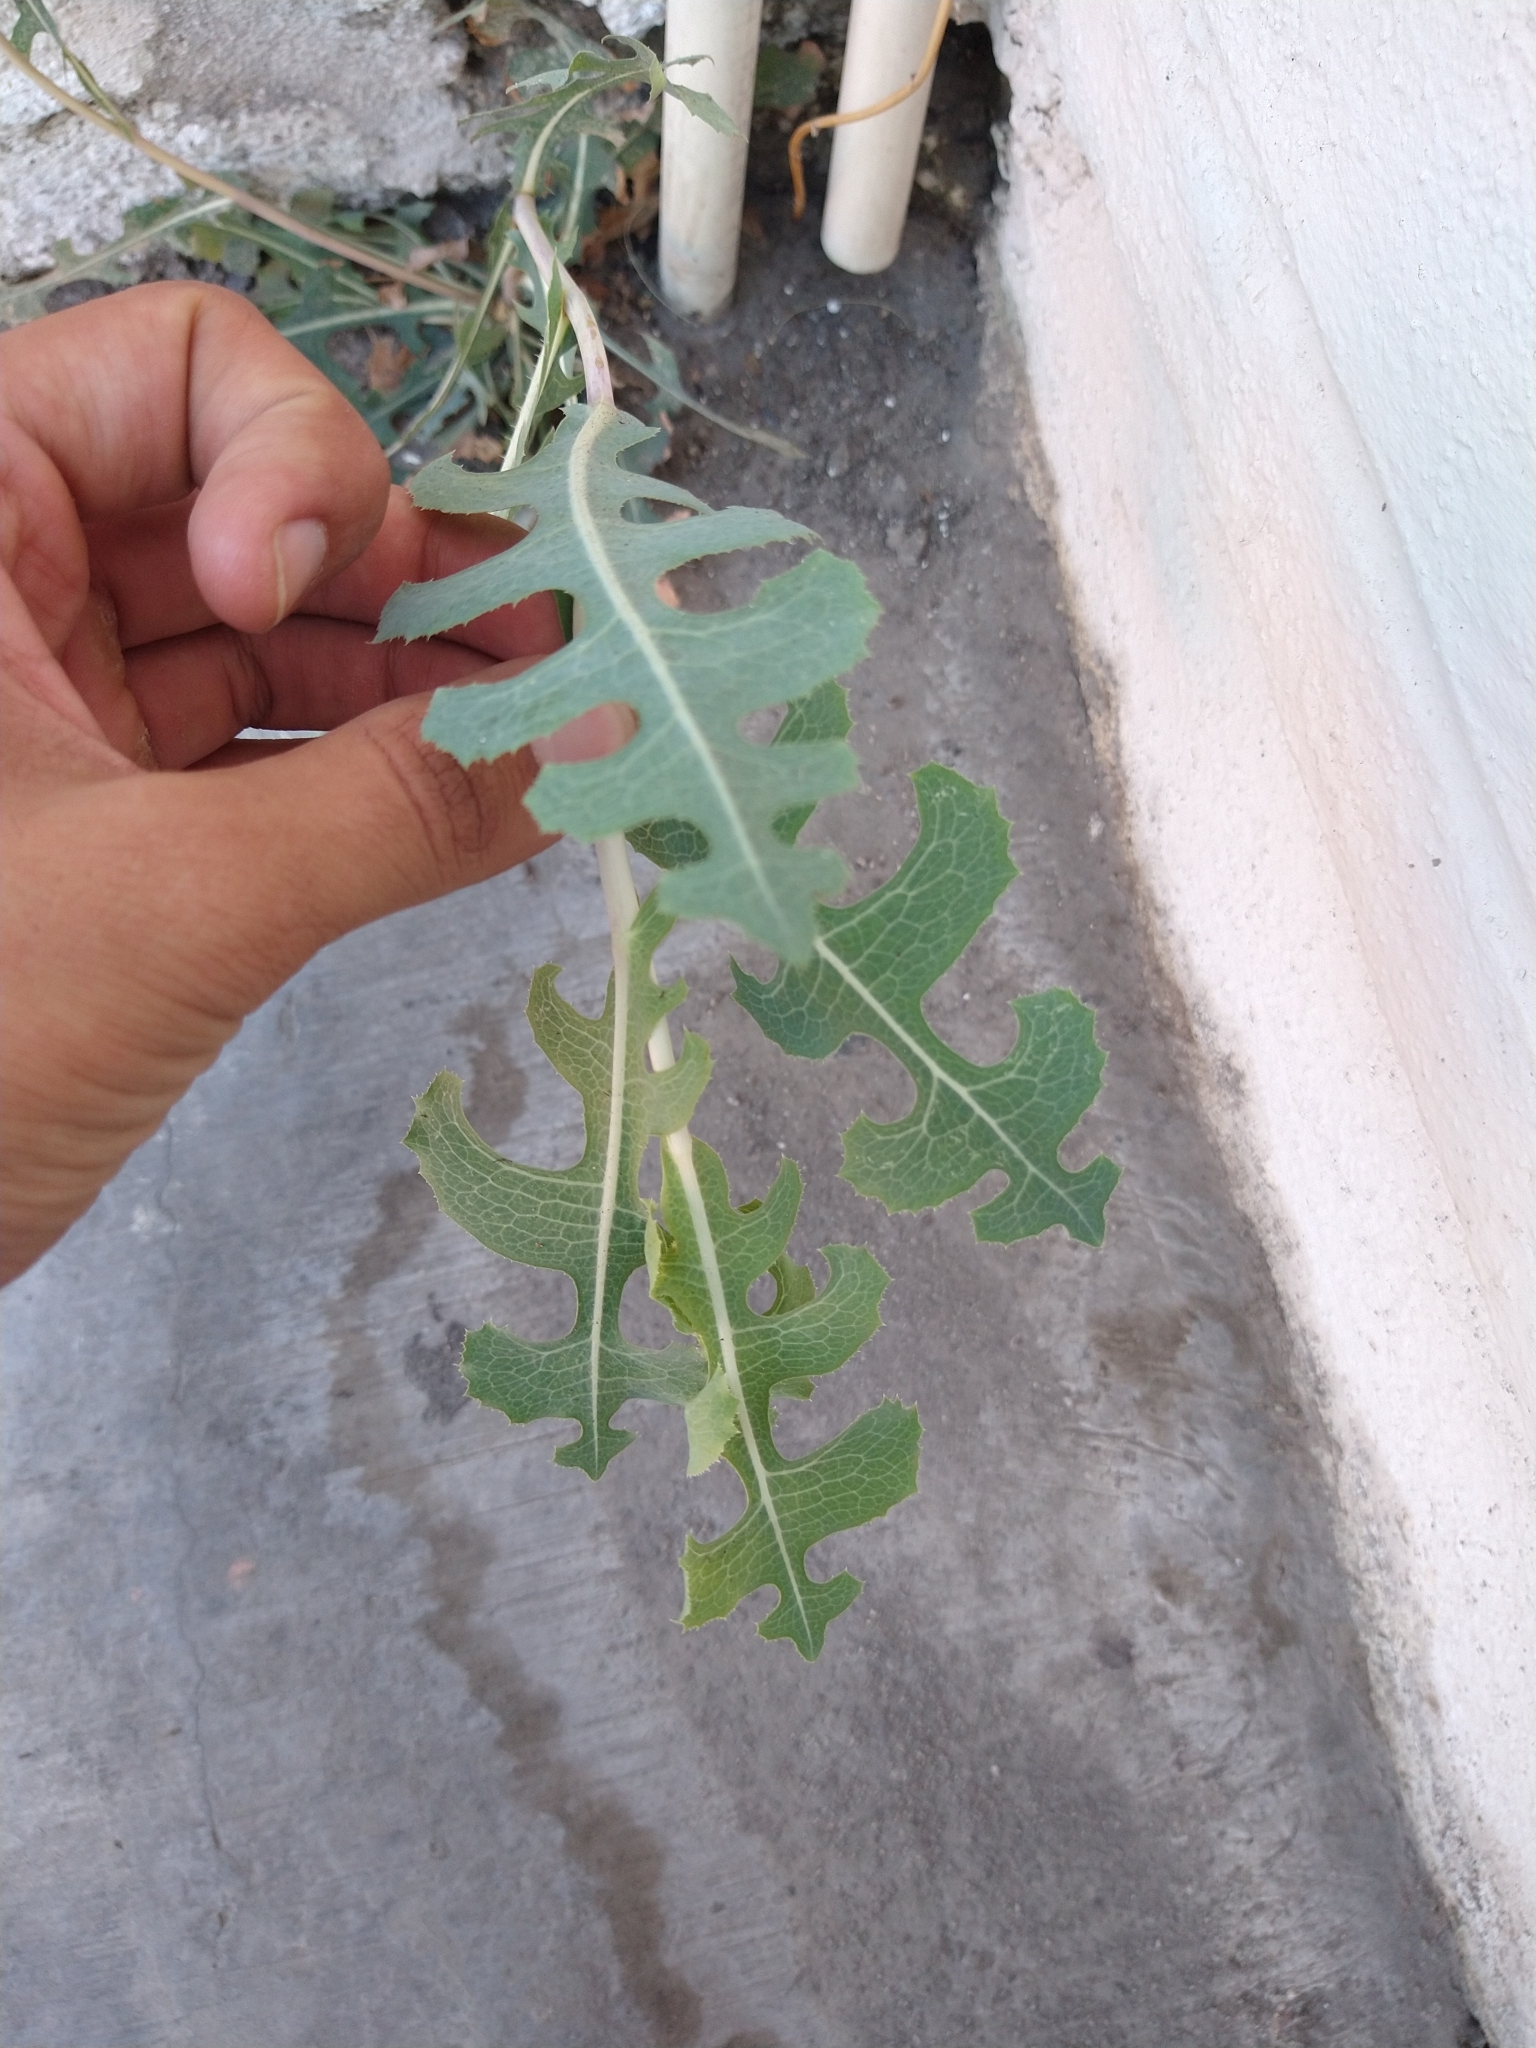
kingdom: Plantae
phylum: Tracheophyta
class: Magnoliopsida
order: Asterales
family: Asteraceae
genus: Lactuca
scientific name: Lactuca serriola
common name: Prickly lettuce
